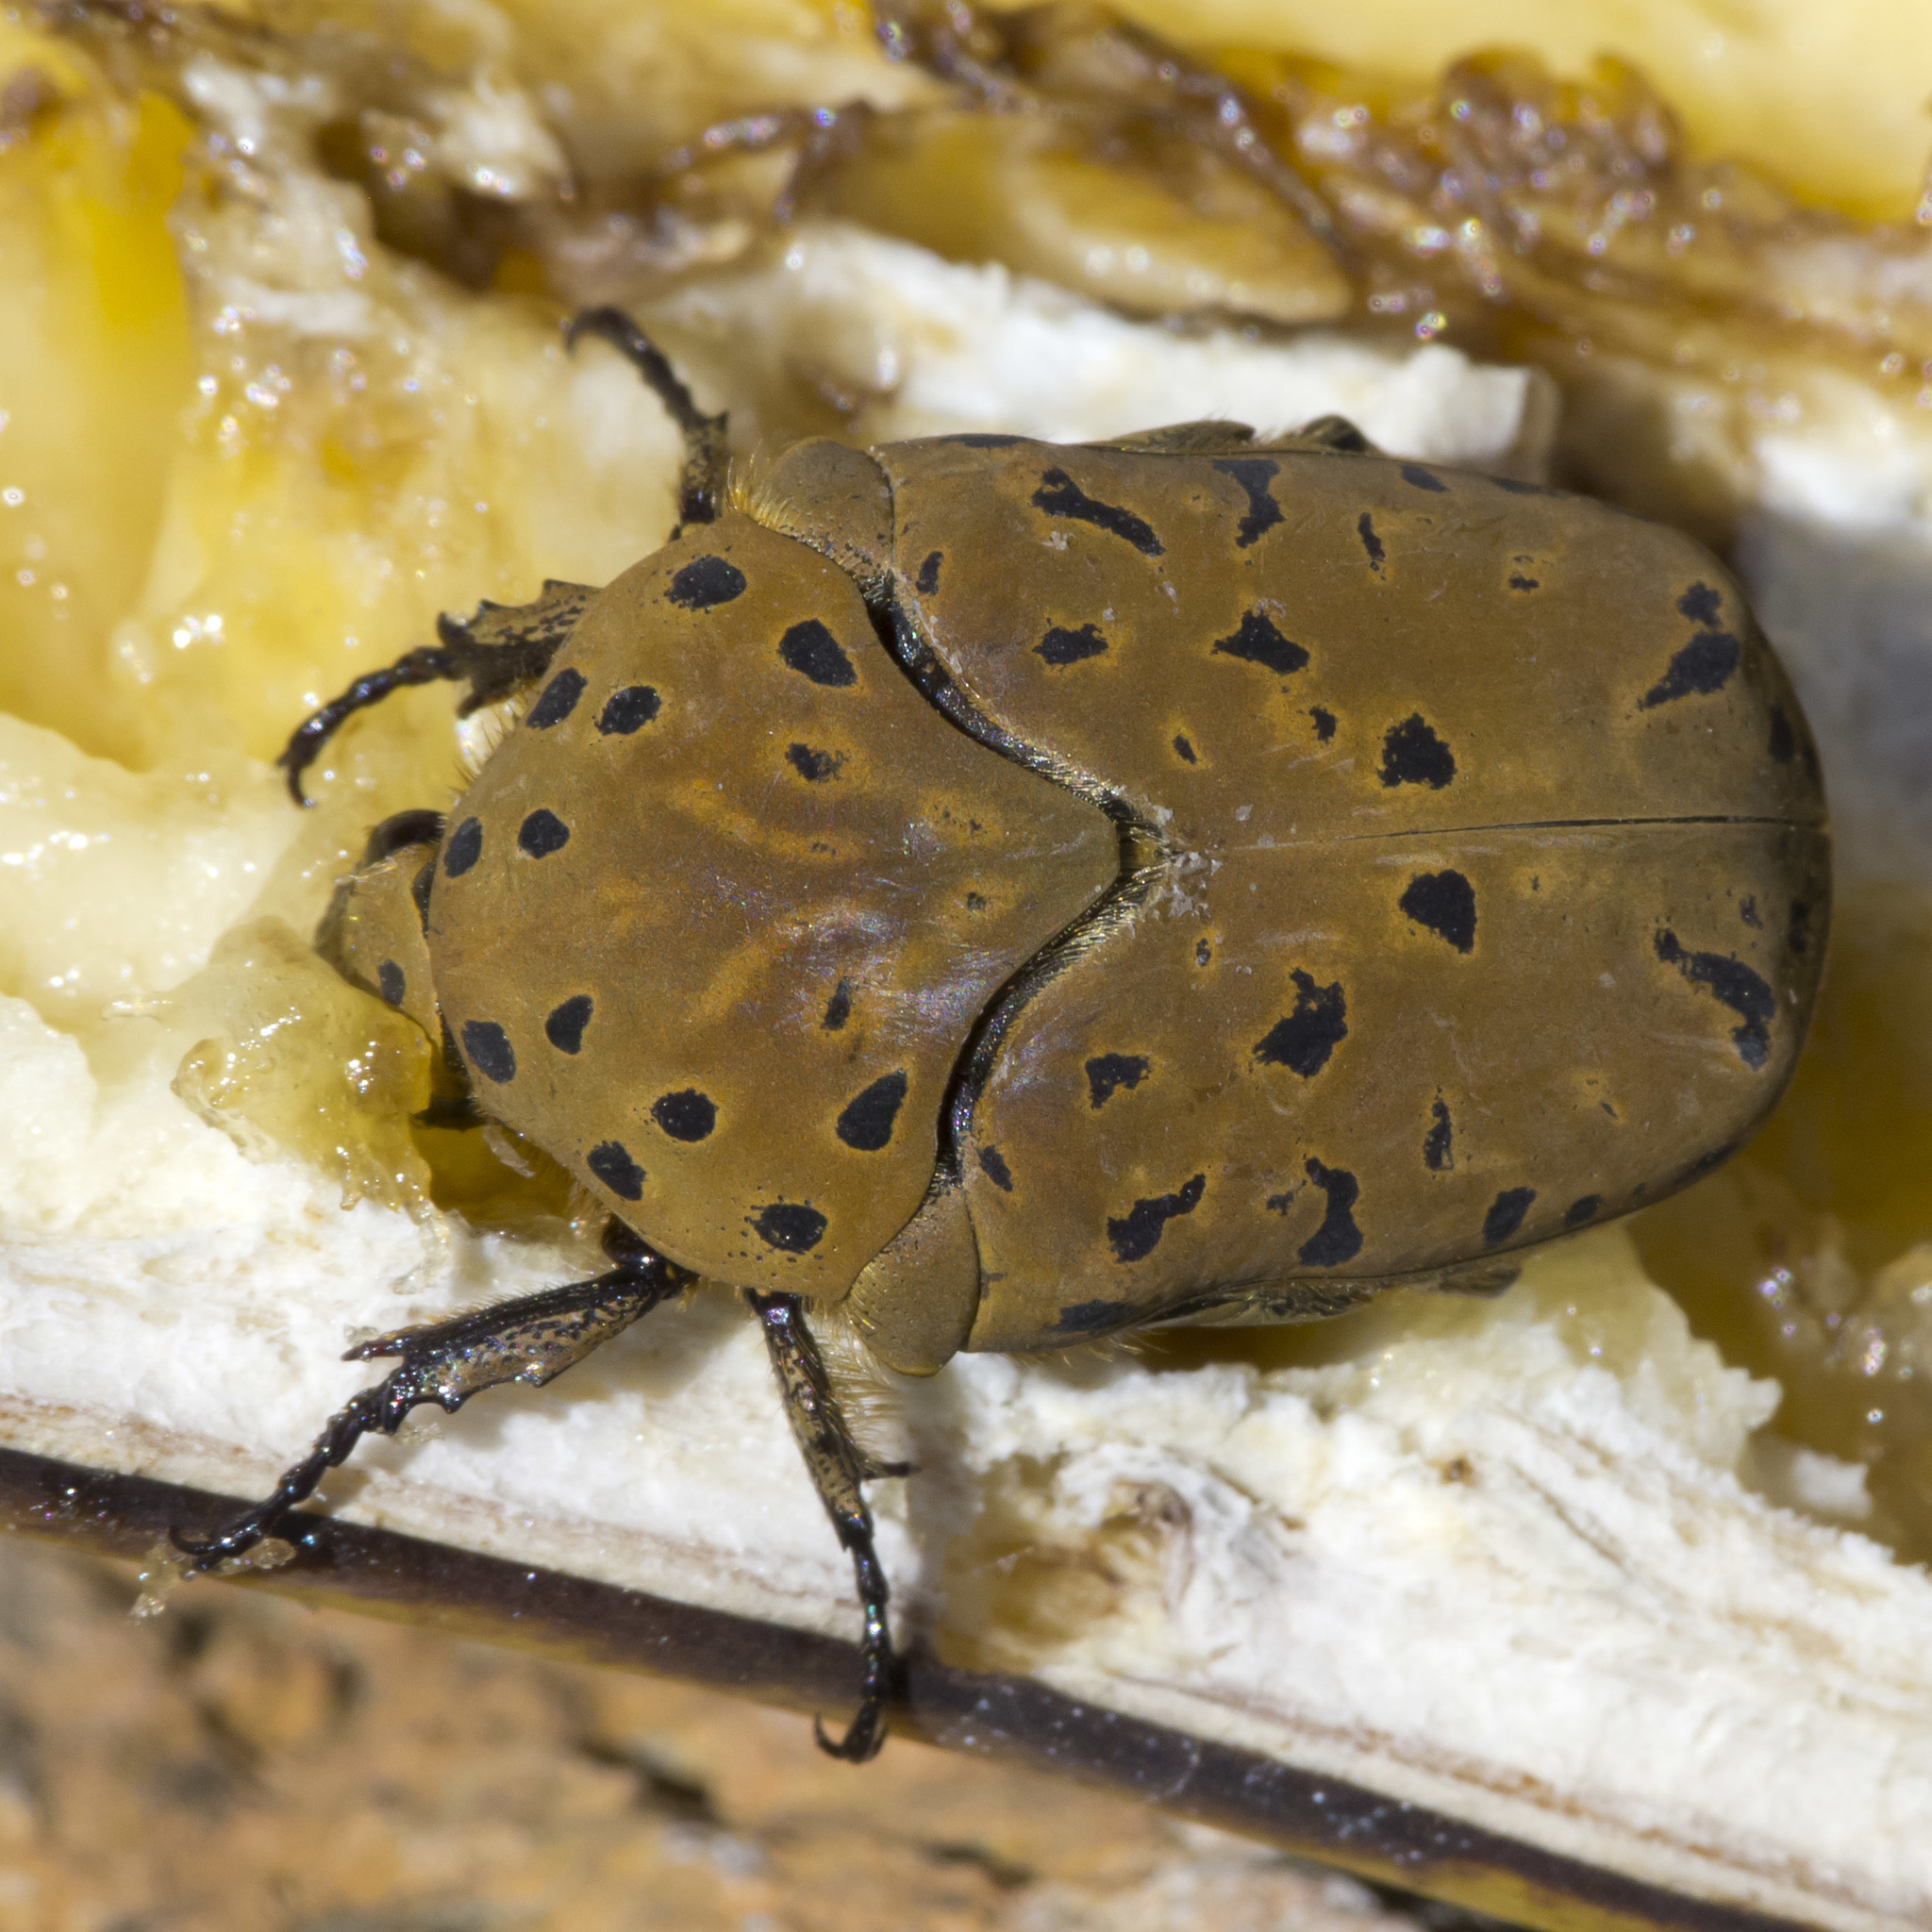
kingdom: Animalia
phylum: Arthropoda
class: Insecta
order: Coleoptera
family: Scarabaeidae
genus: Gymnetis
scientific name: Gymnetis pantherina
